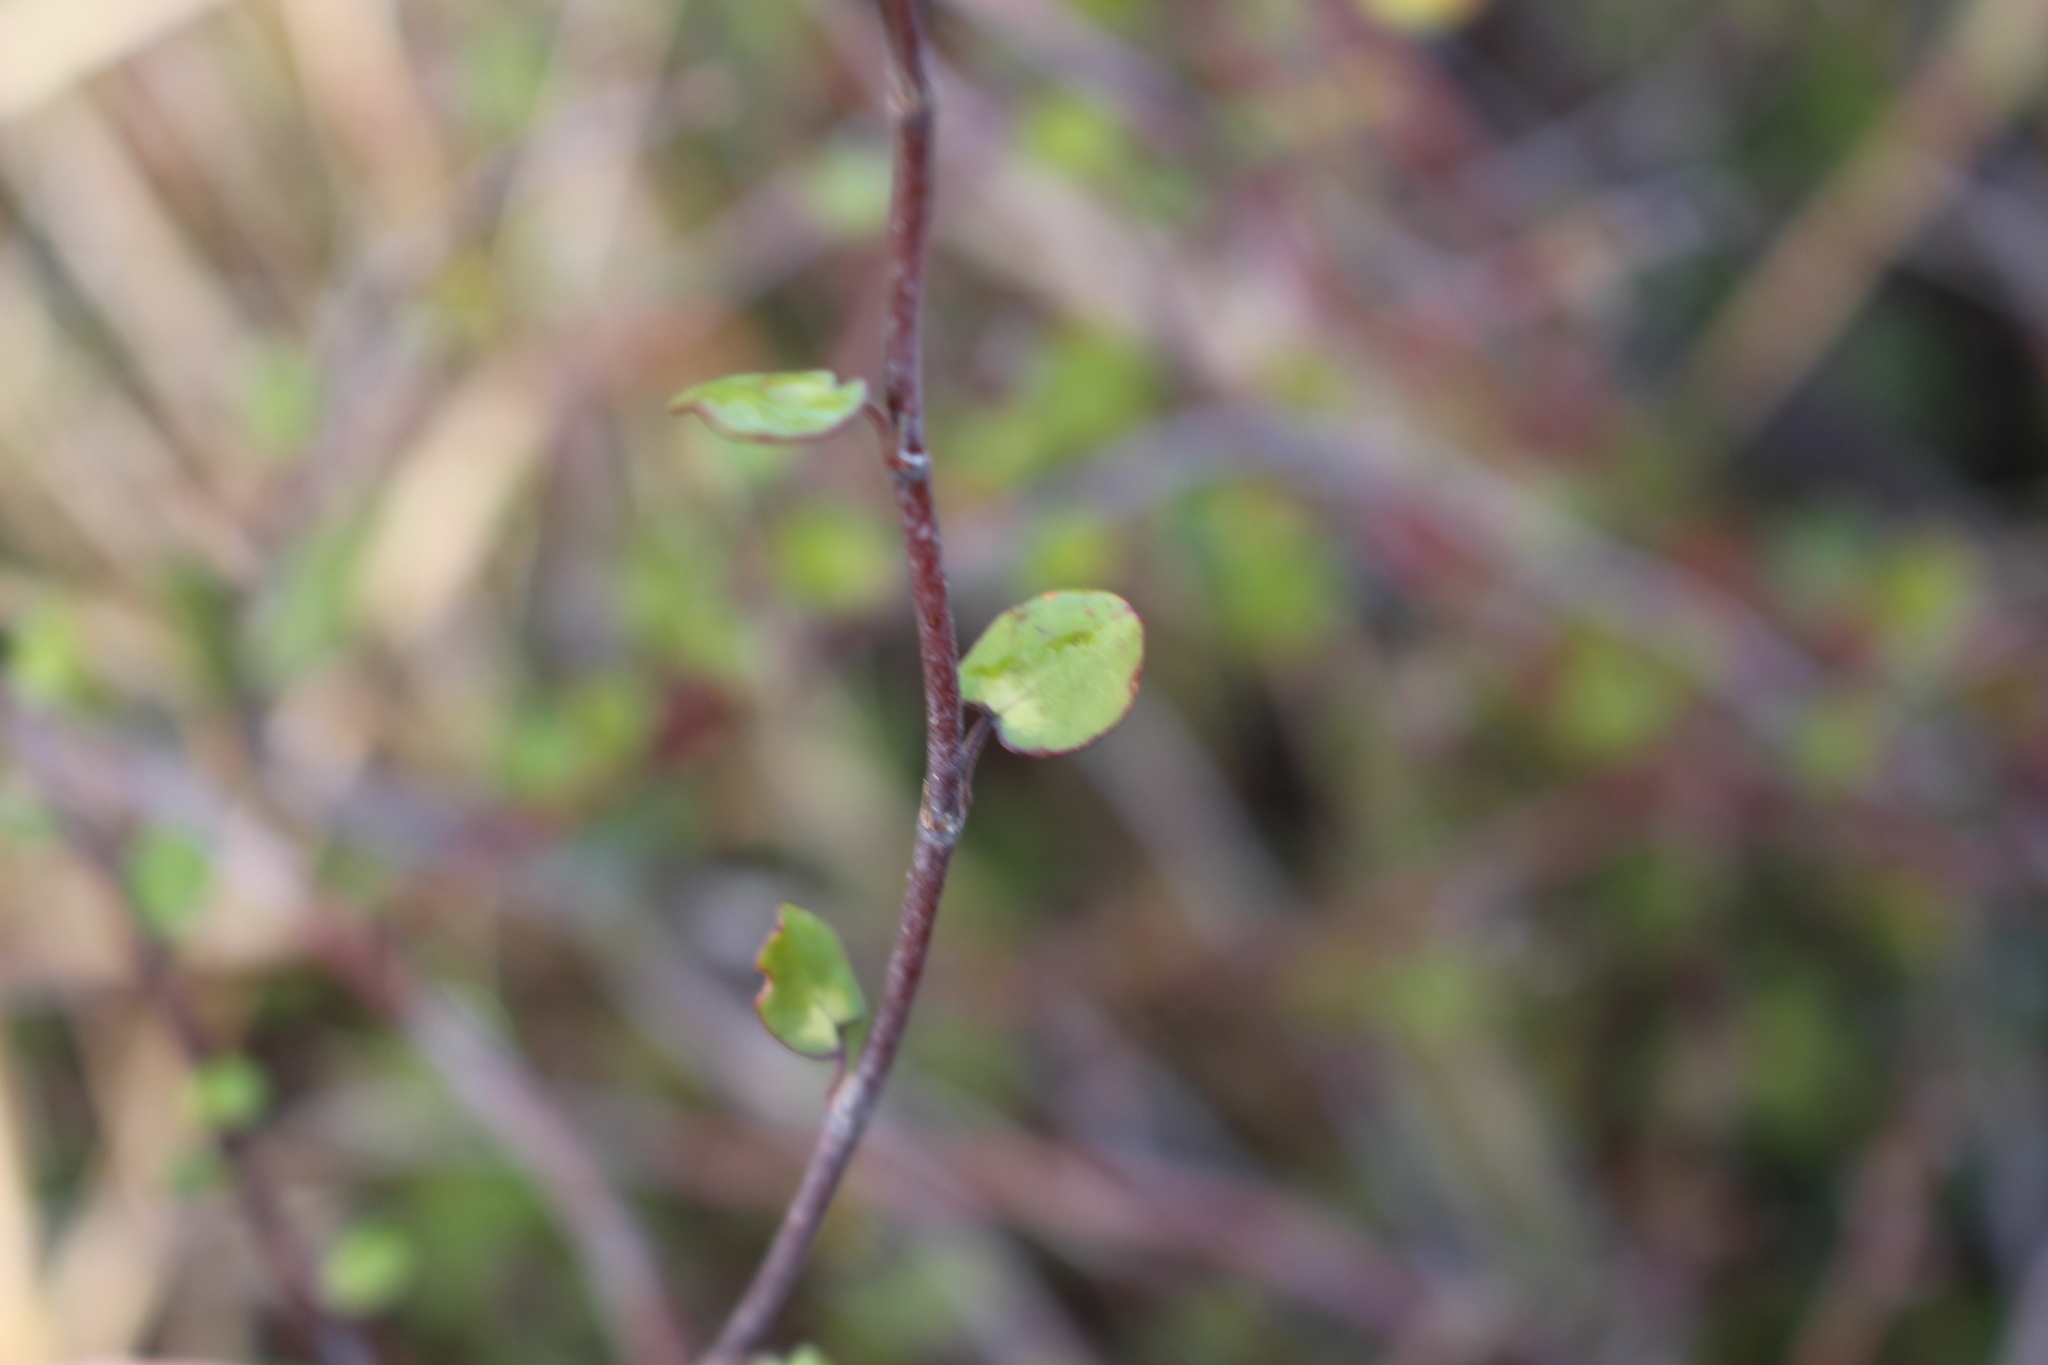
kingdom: Plantae
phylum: Tracheophyta
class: Magnoliopsida
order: Caryophyllales
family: Polygonaceae
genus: Muehlenbeckia
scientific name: Muehlenbeckia complexa
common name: Wireplant
